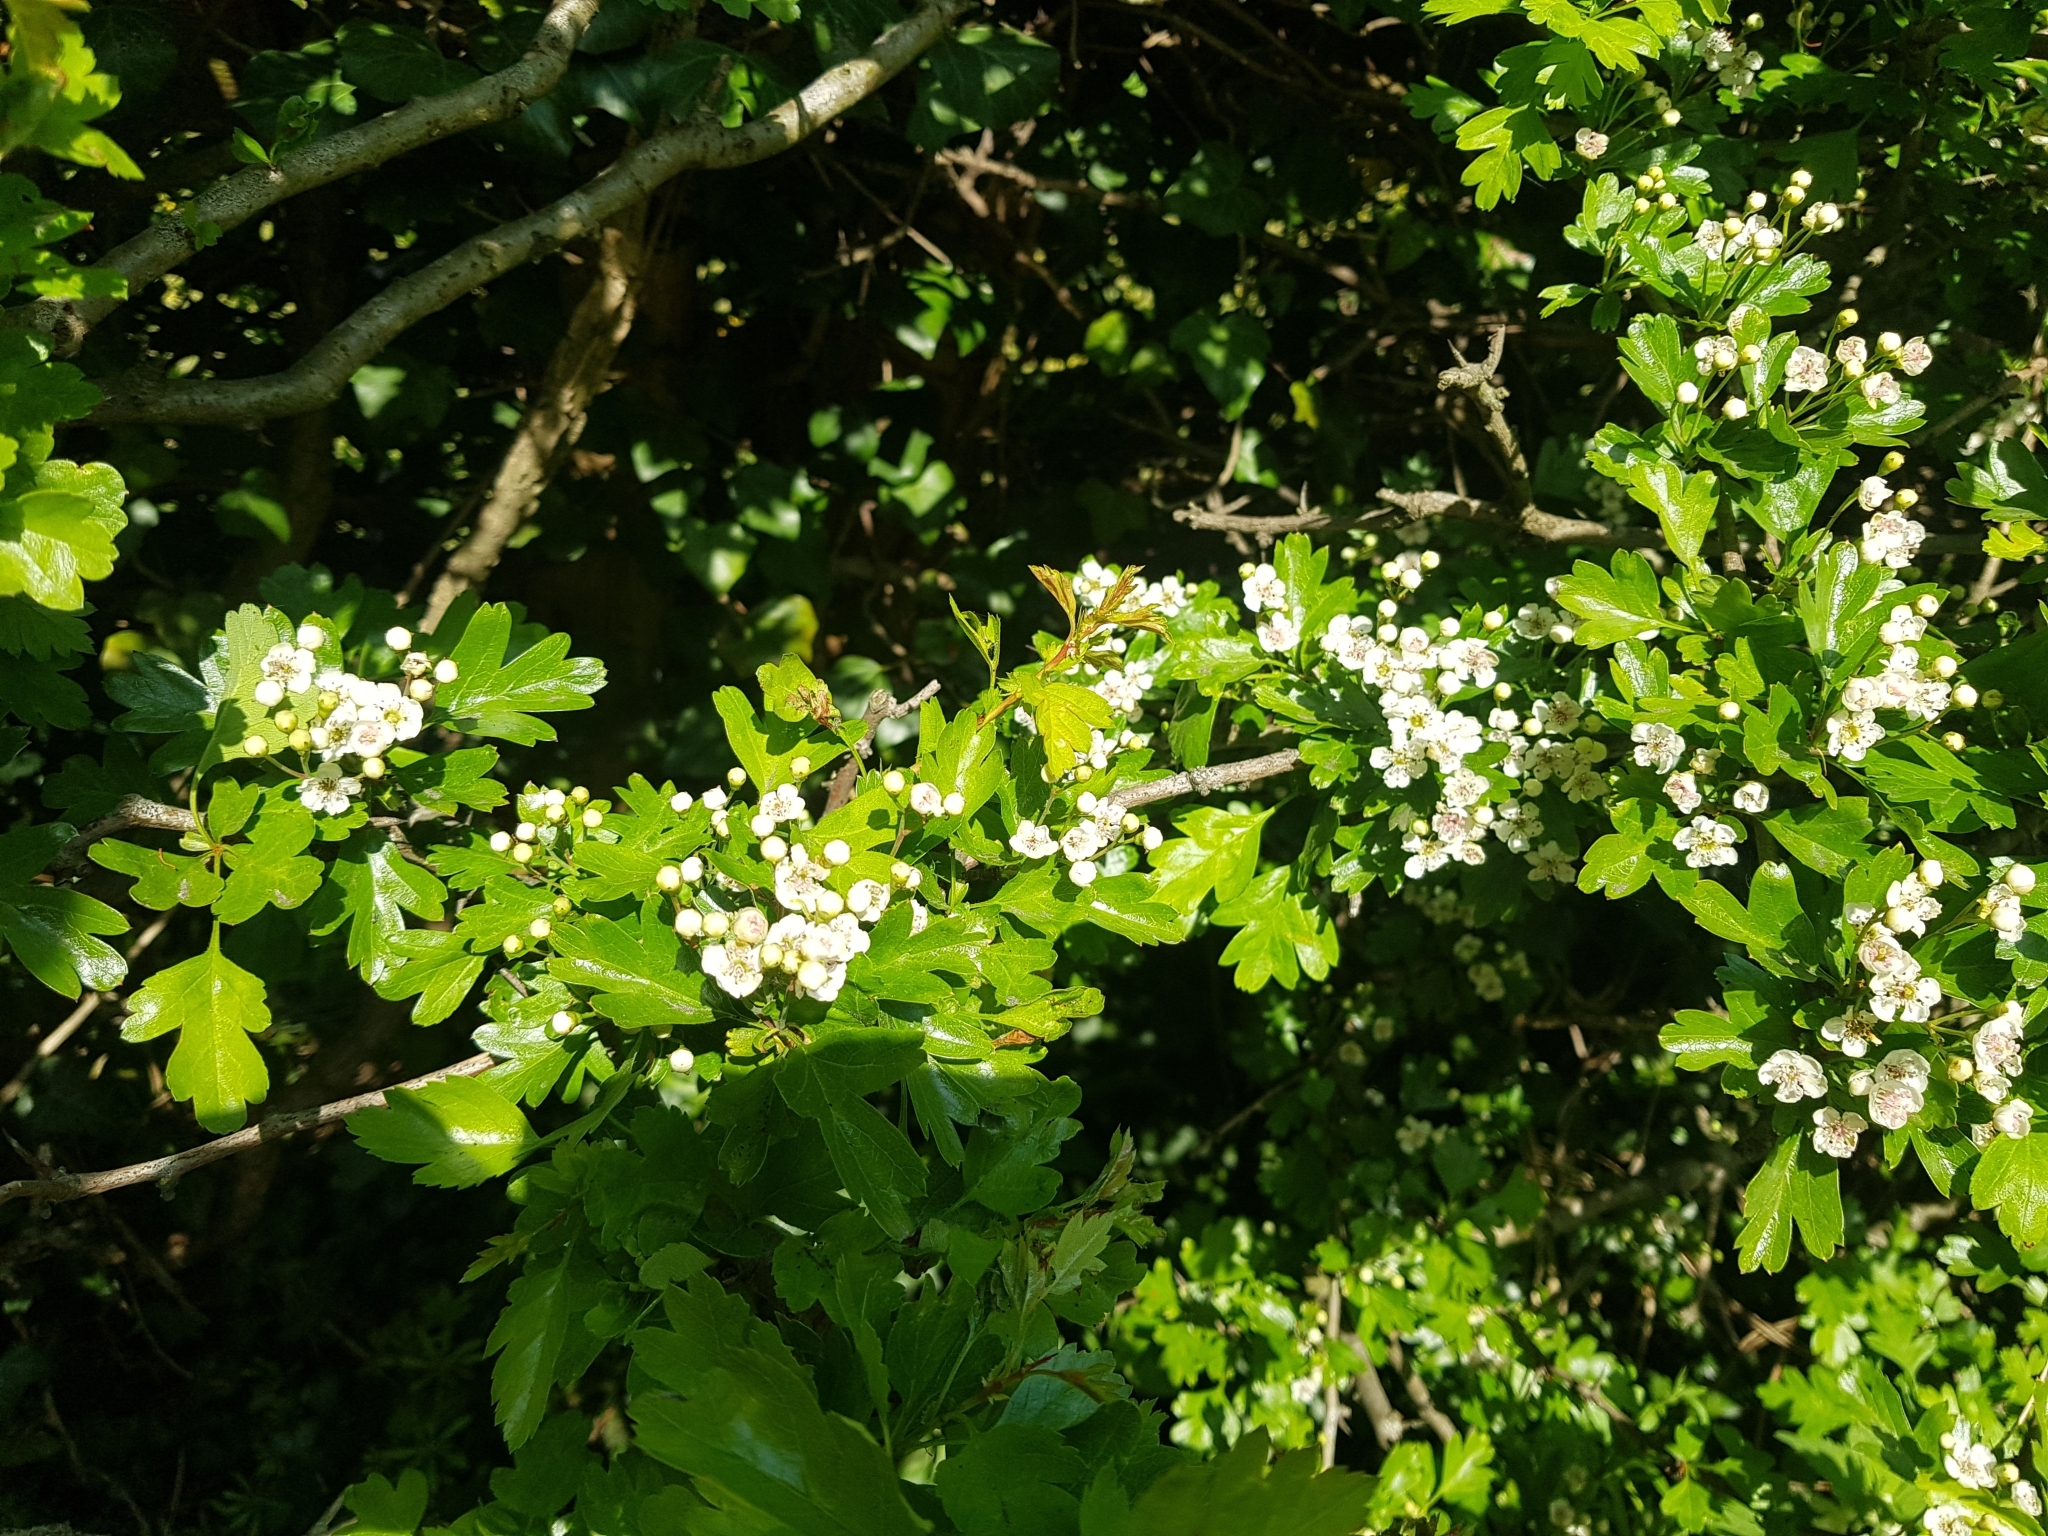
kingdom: Plantae
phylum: Tracheophyta
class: Magnoliopsida
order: Rosales
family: Rosaceae
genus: Crataegus
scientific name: Crataegus monogyna
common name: Hawthorn
